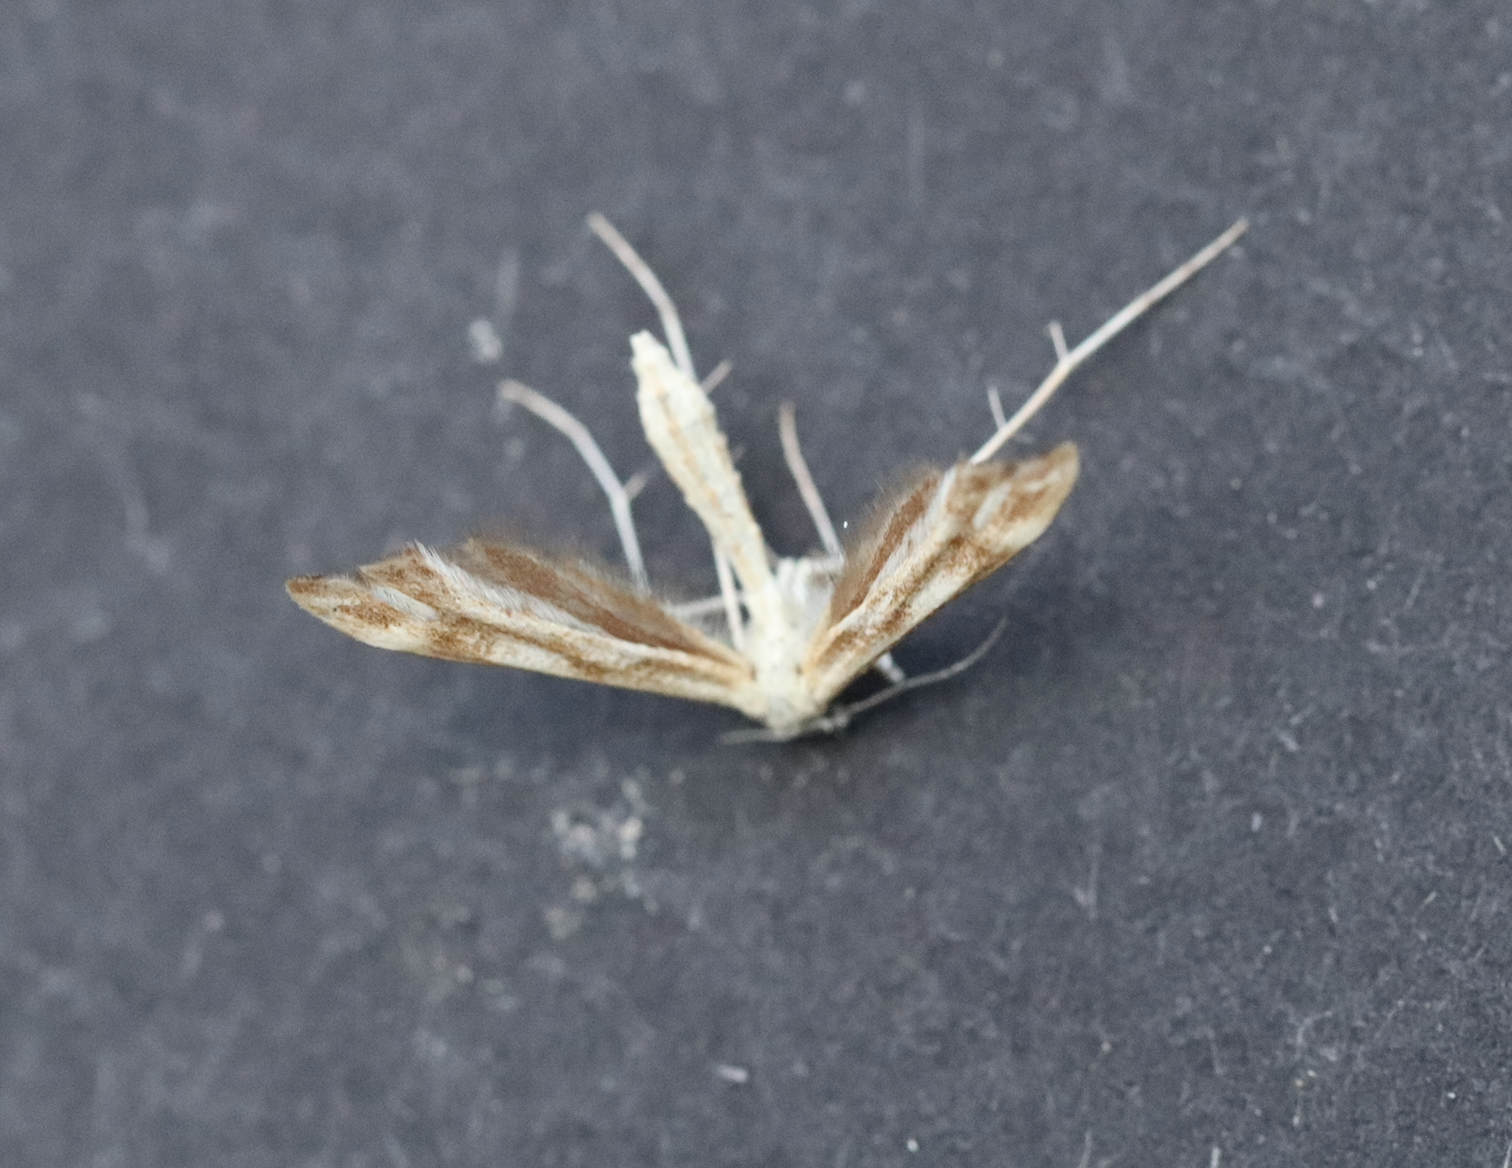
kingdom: Animalia
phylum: Arthropoda
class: Insecta
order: Lepidoptera
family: Pterophoridae
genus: Gillmeria
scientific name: Gillmeria pallidactyla
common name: Yarrow plume
